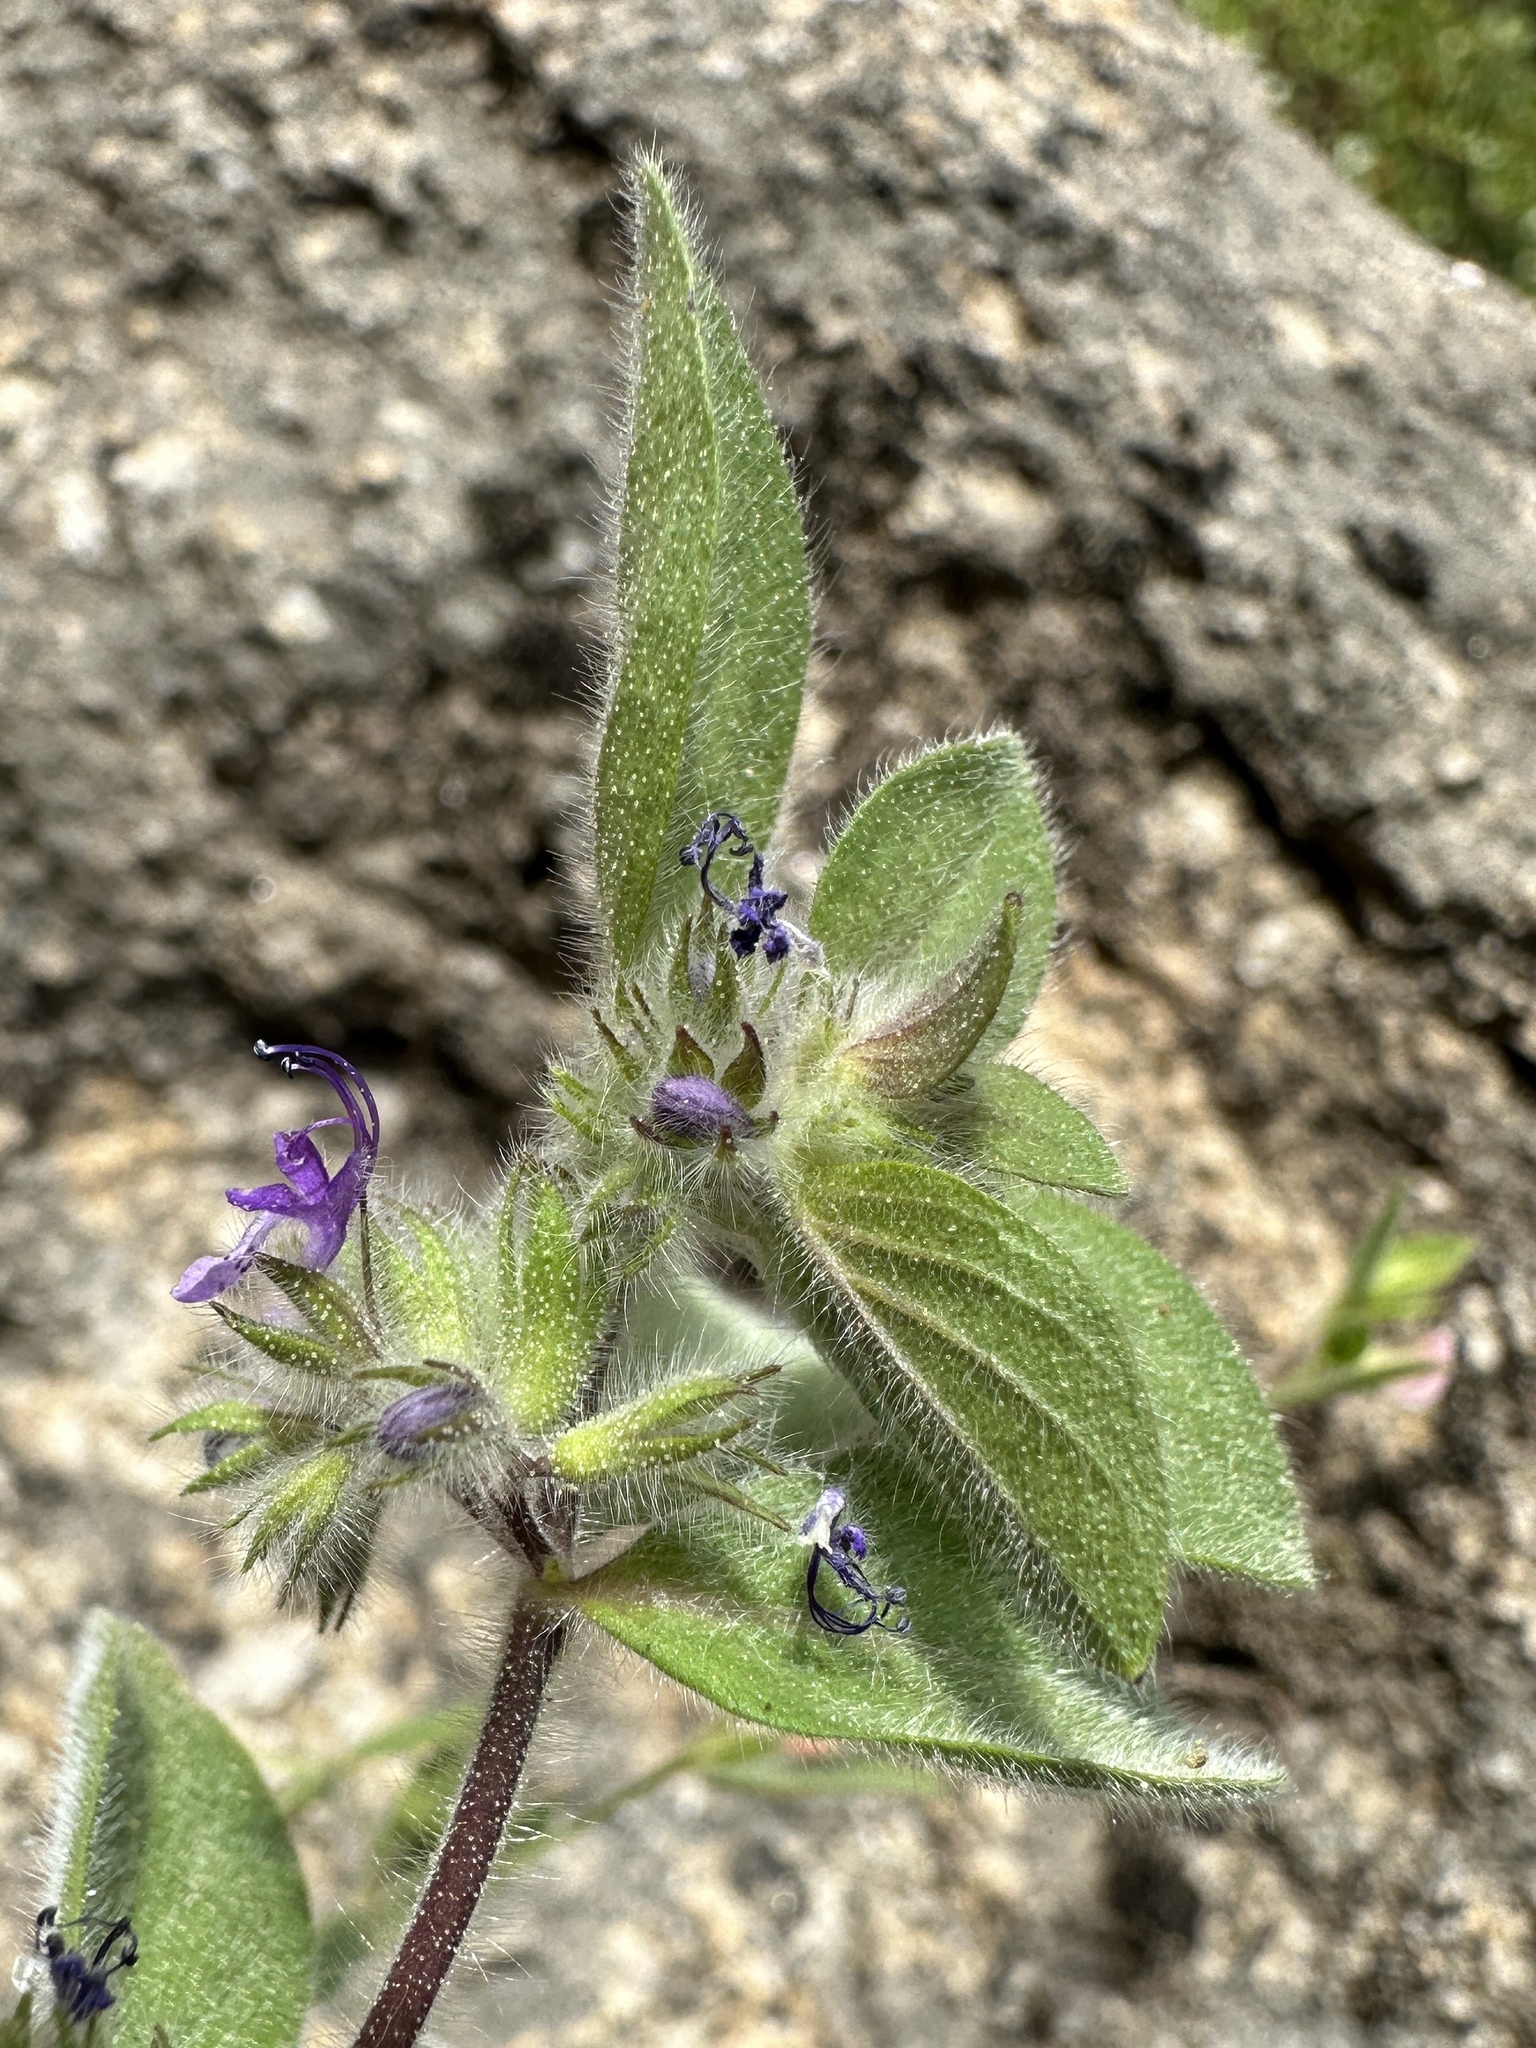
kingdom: Plantae
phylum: Tracheophyta
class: Magnoliopsida
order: Lamiales
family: Lamiaceae
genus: Trichostema
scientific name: Trichostema oblongum
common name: Mountain bluecurls
